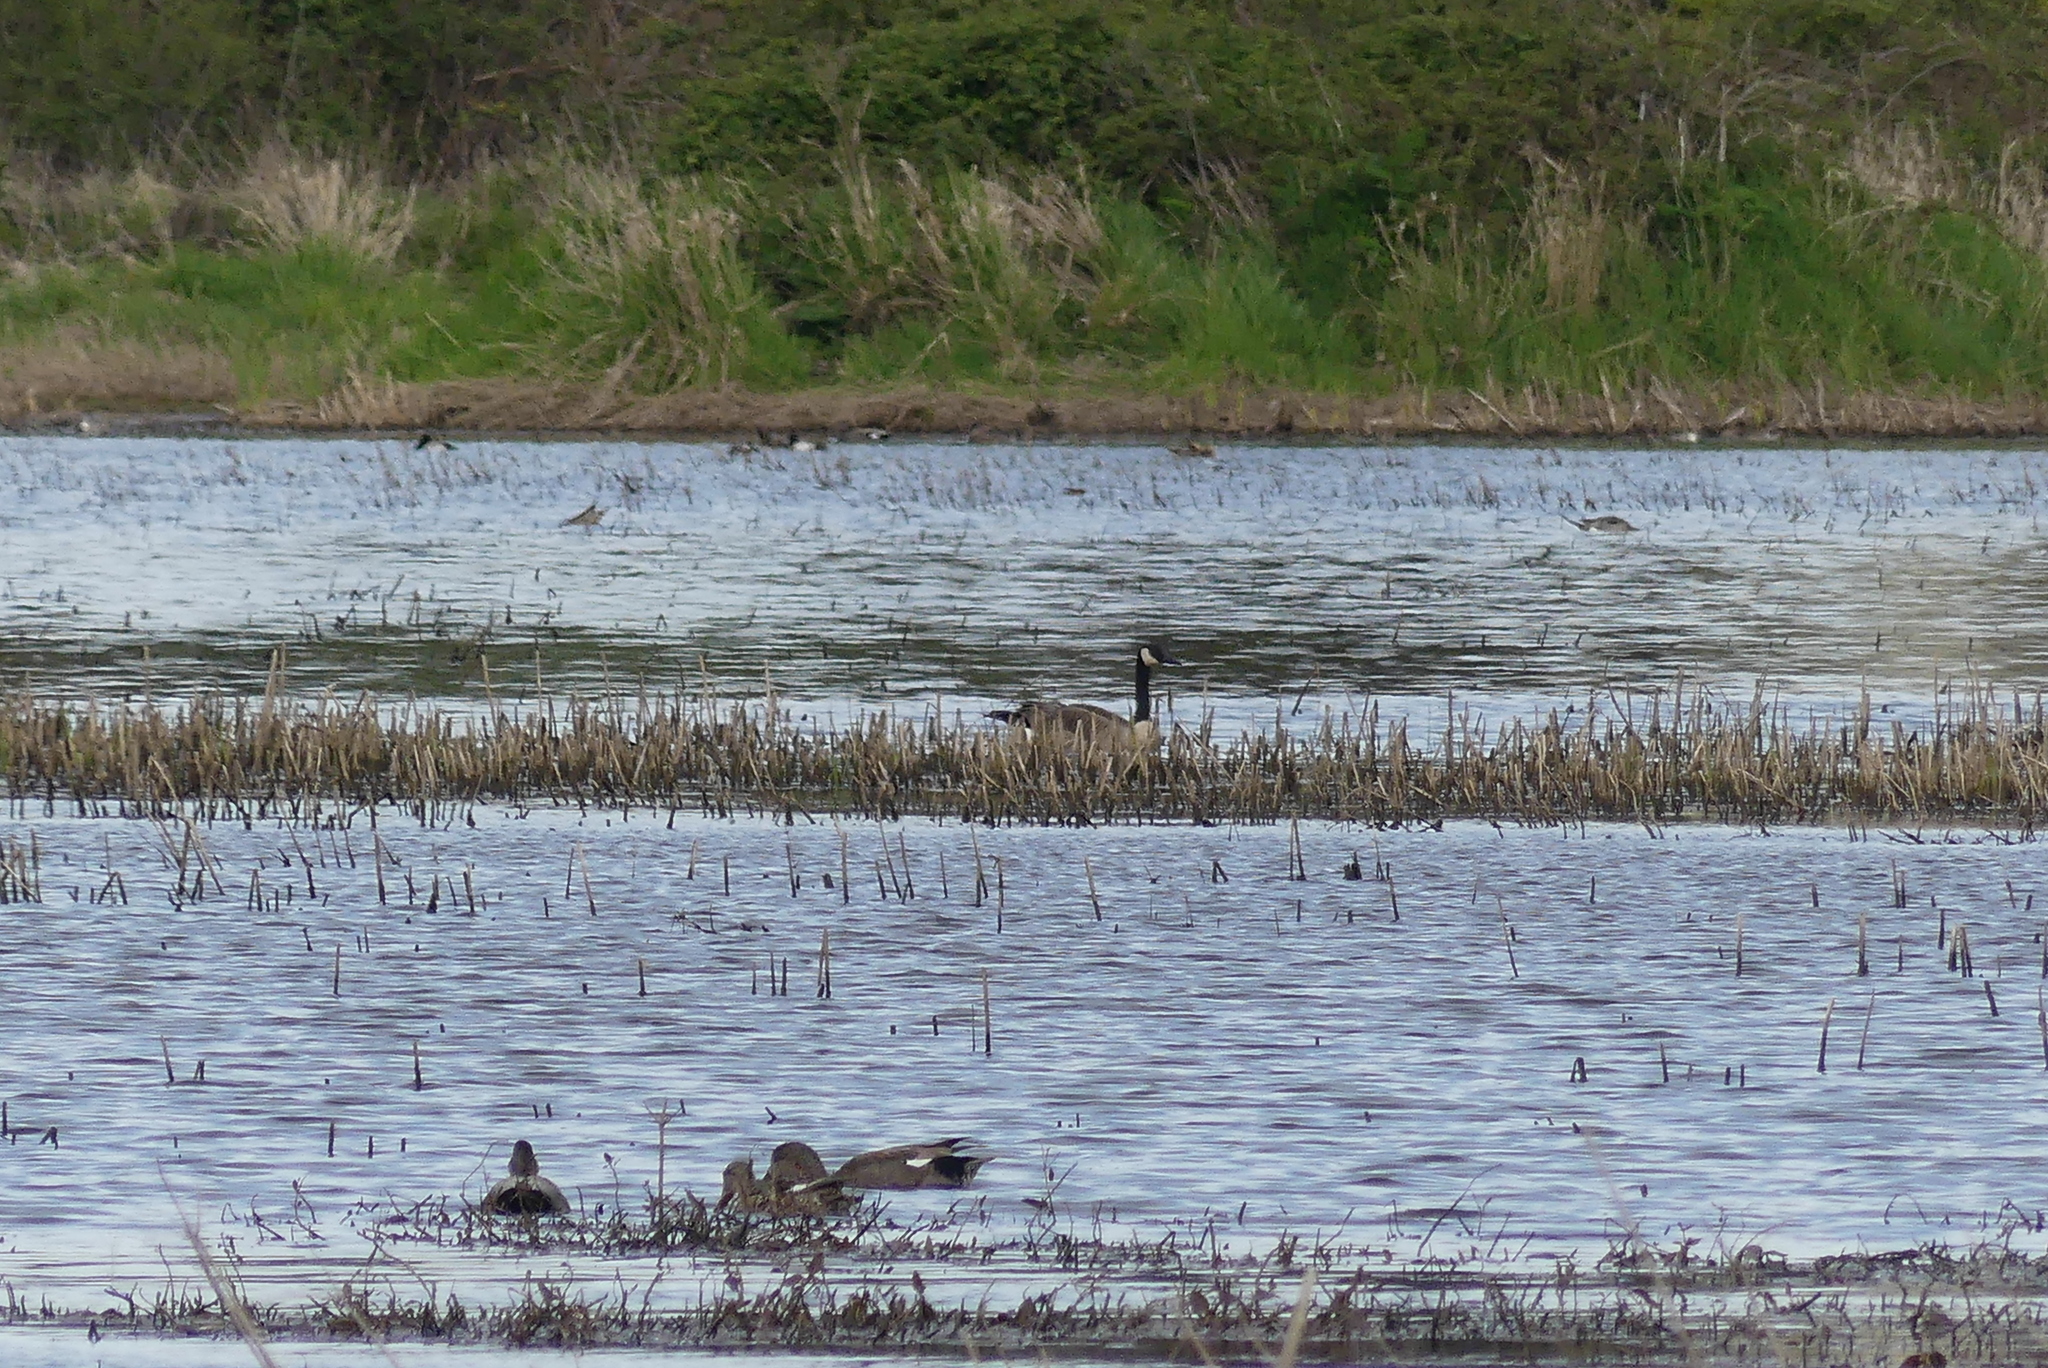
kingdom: Animalia
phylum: Chordata
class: Aves
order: Anseriformes
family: Anatidae
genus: Branta
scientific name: Branta canadensis
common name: Canada goose
